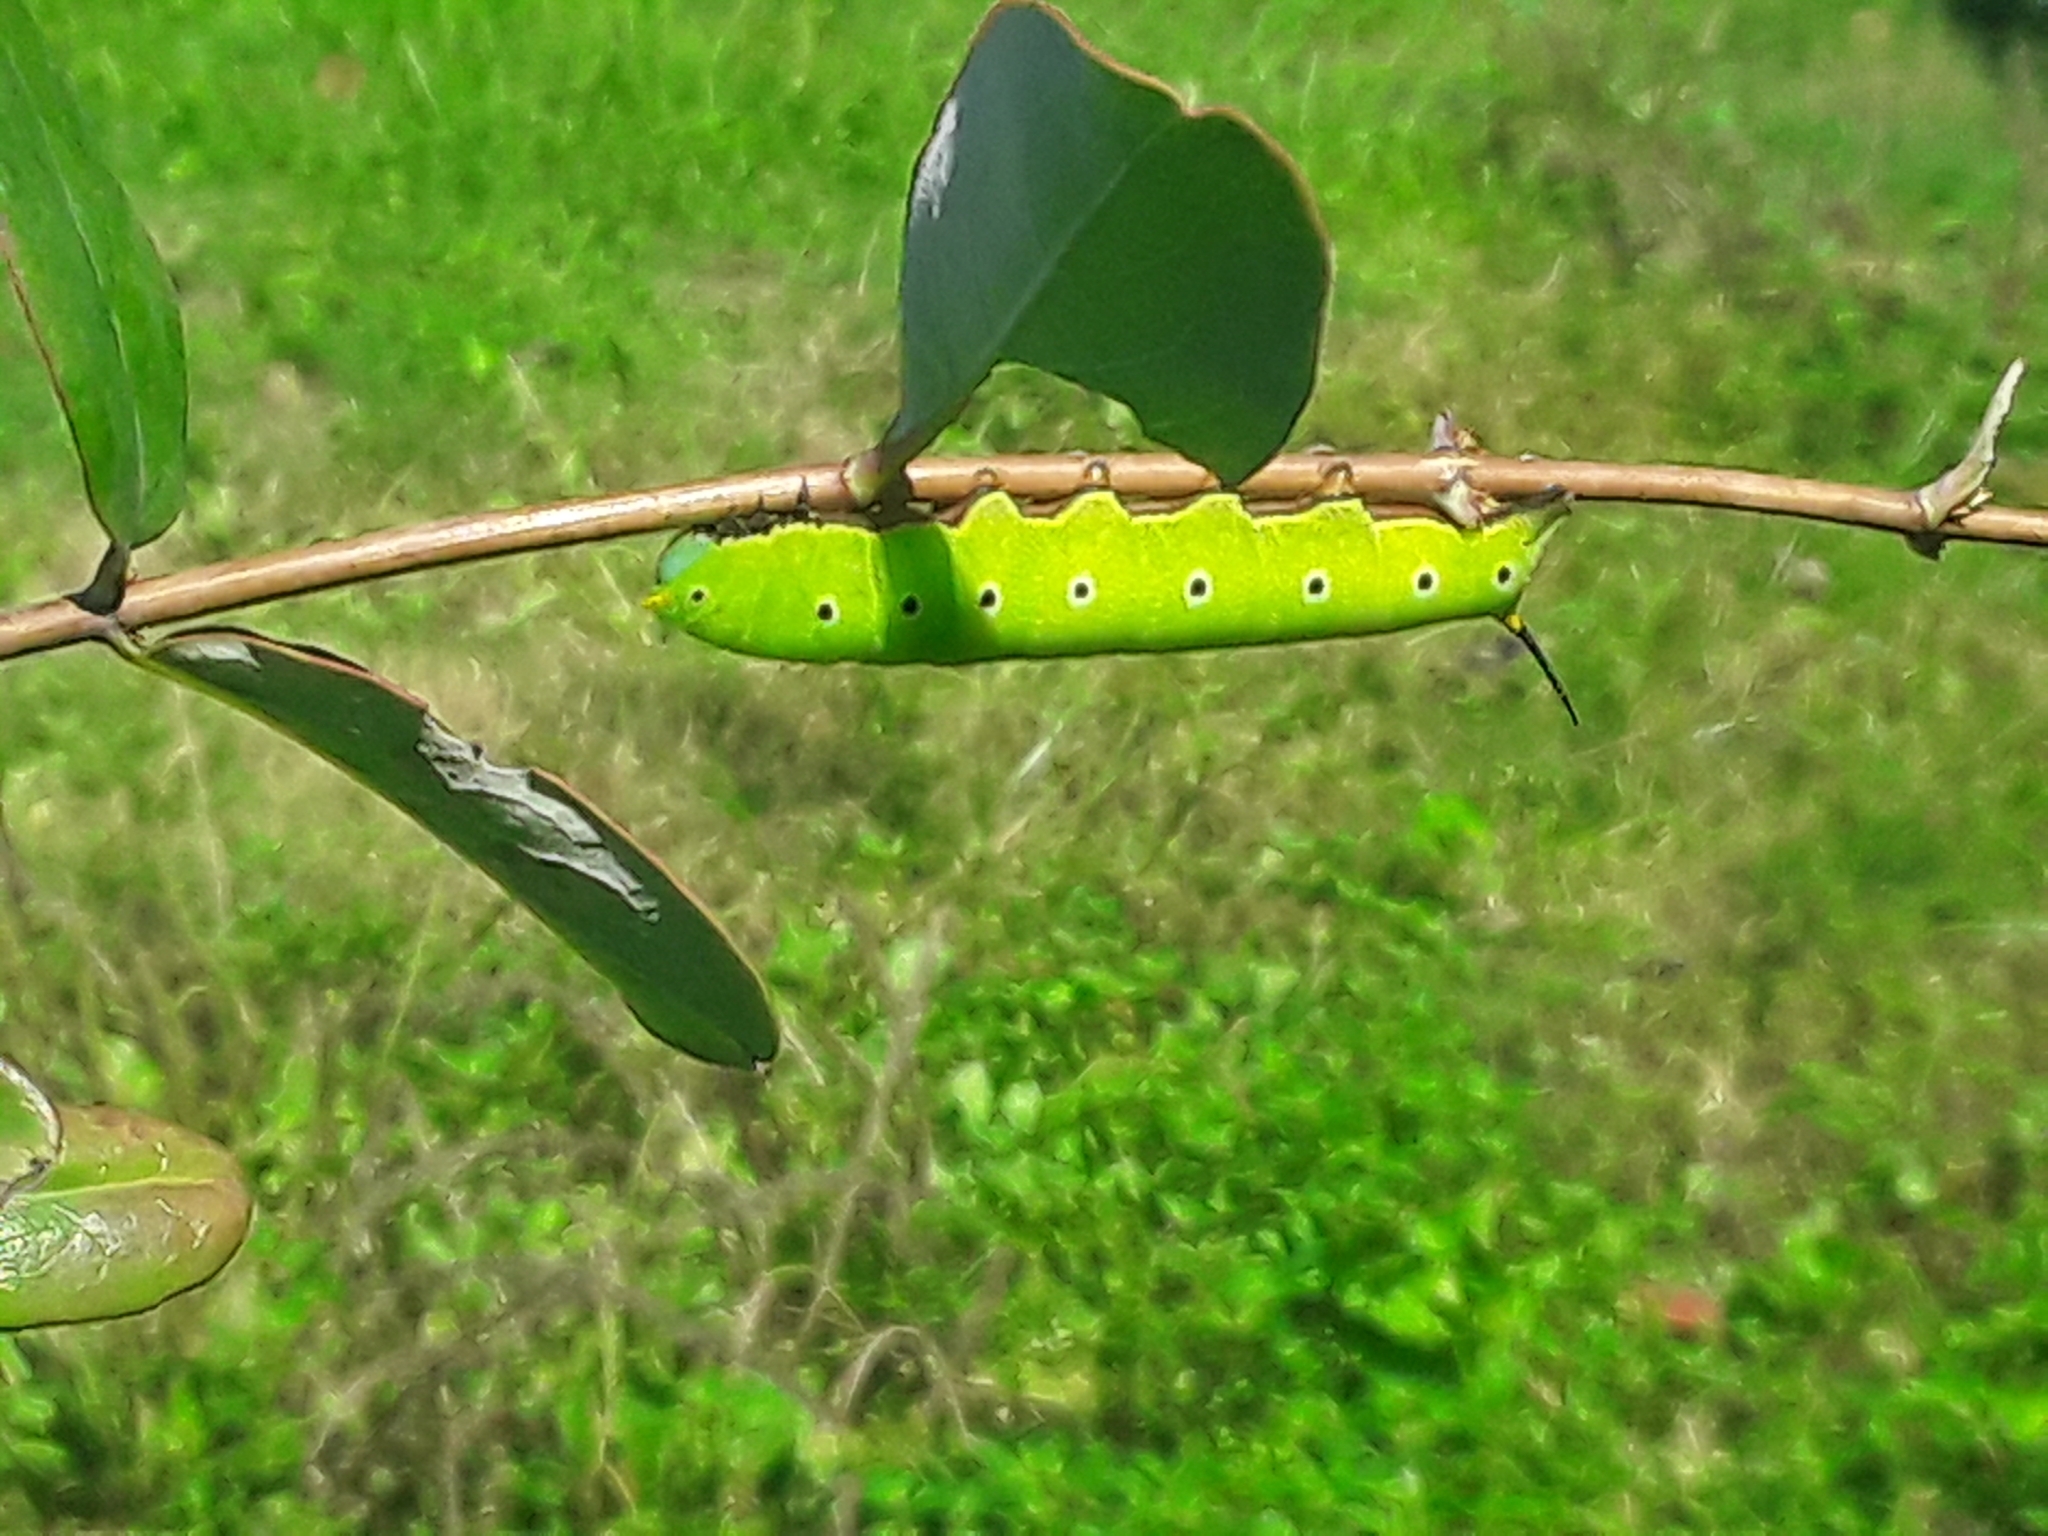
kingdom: Animalia
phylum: Arthropoda
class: Insecta
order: Lepidoptera
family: Sphingidae
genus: Hemaris
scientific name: Hemaris diffinis
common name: Bumblebee moth
